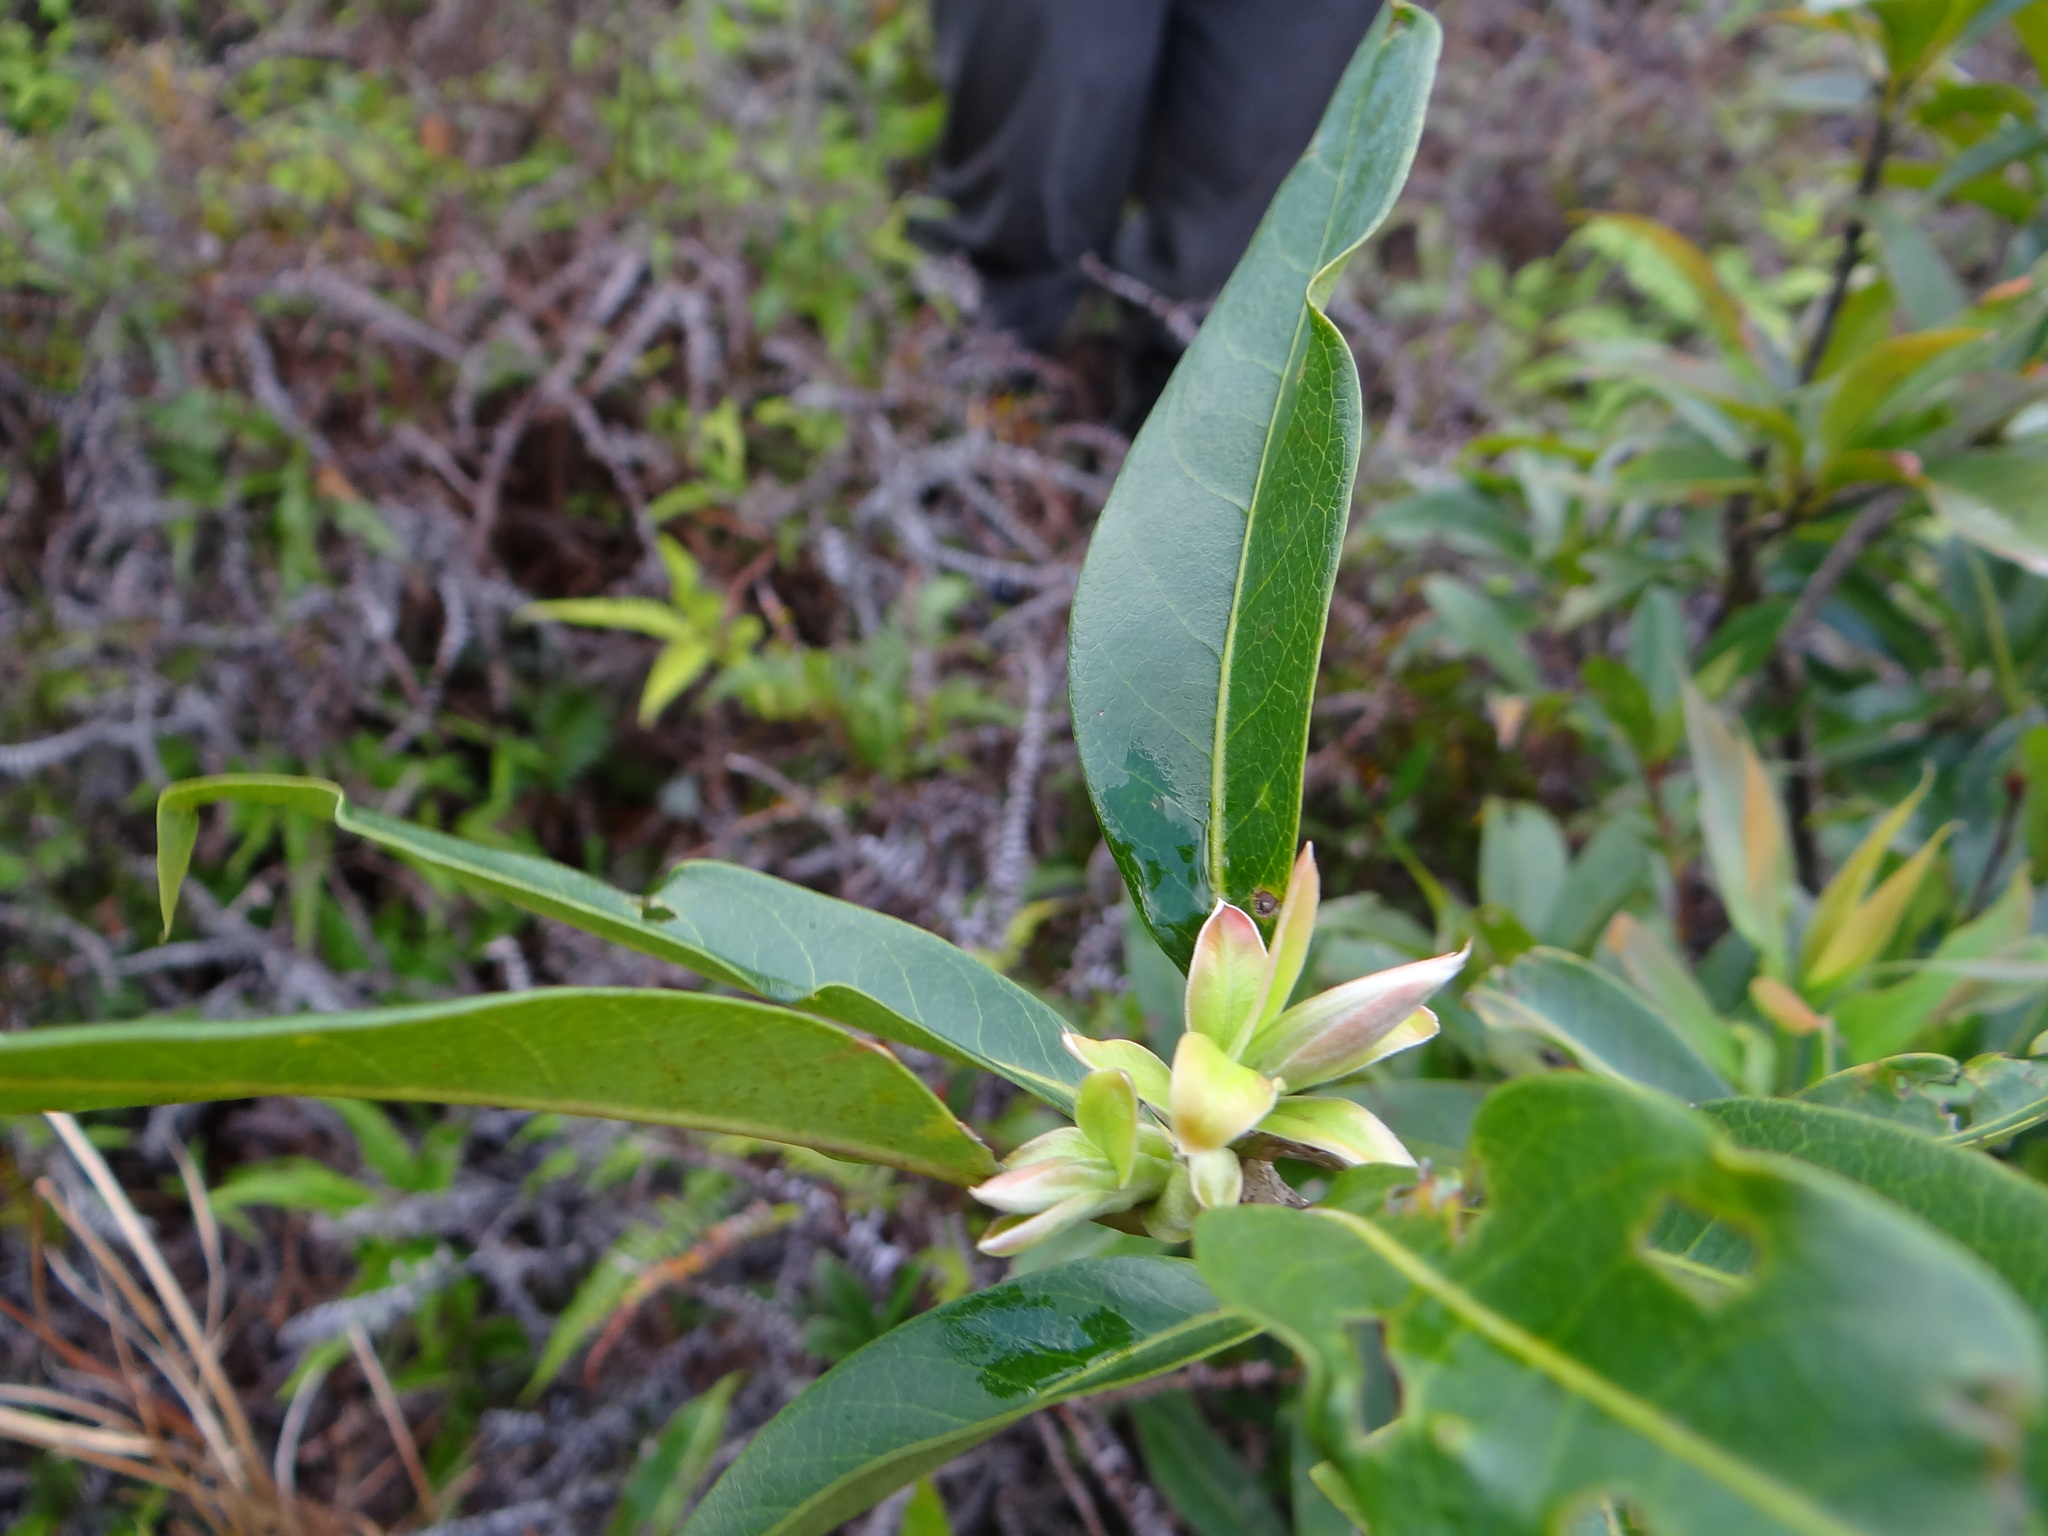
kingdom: Plantae
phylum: Tracheophyta
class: Magnoliopsida
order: Ericales
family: Theaceae
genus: Schima
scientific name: Schima superba
